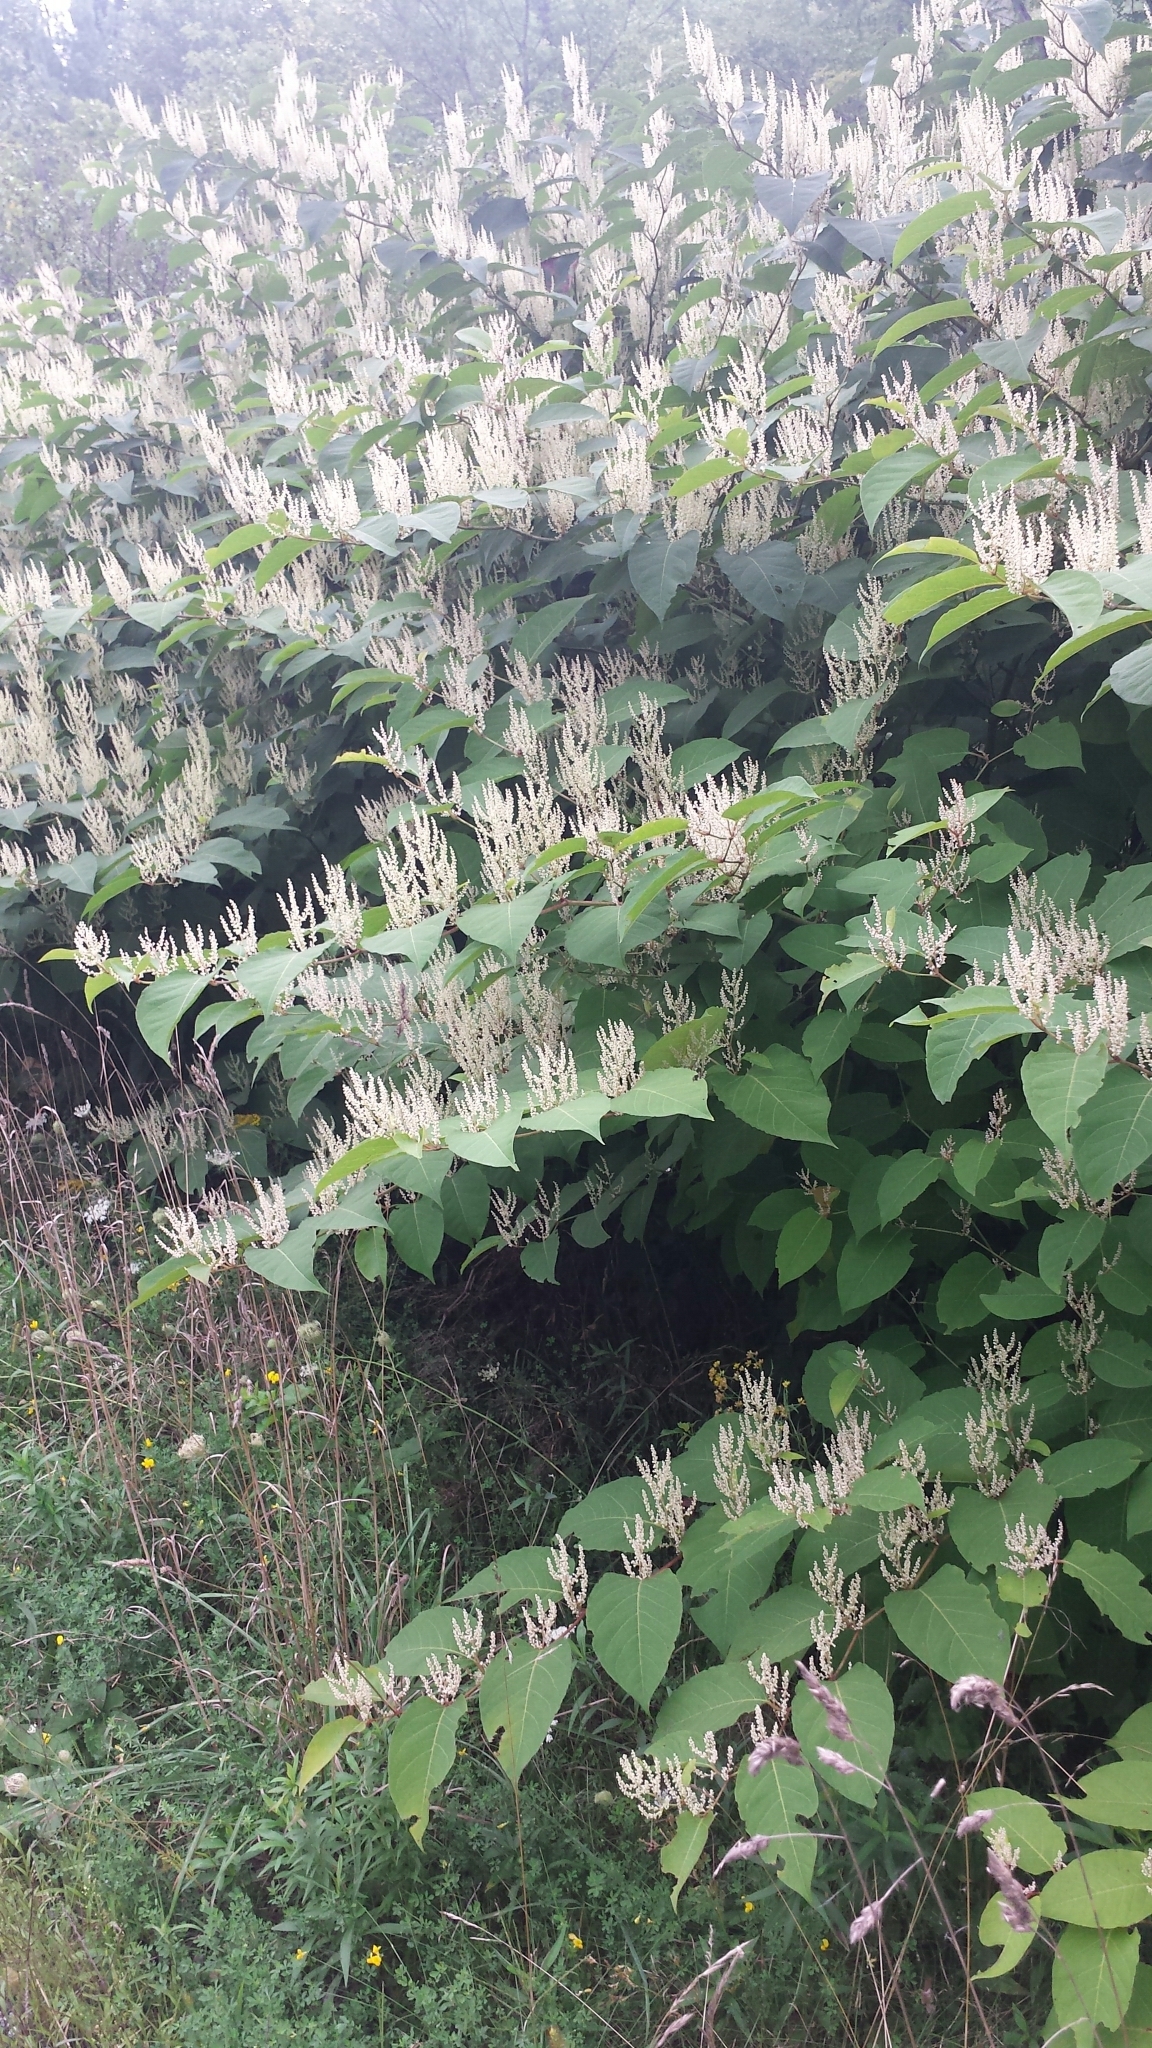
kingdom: Plantae
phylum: Tracheophyta
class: Magnoliopsida
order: Caryophyllales
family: Polygonaceae
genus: Reynoutria
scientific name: Reynoutria japonica
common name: Japanese knotweed
